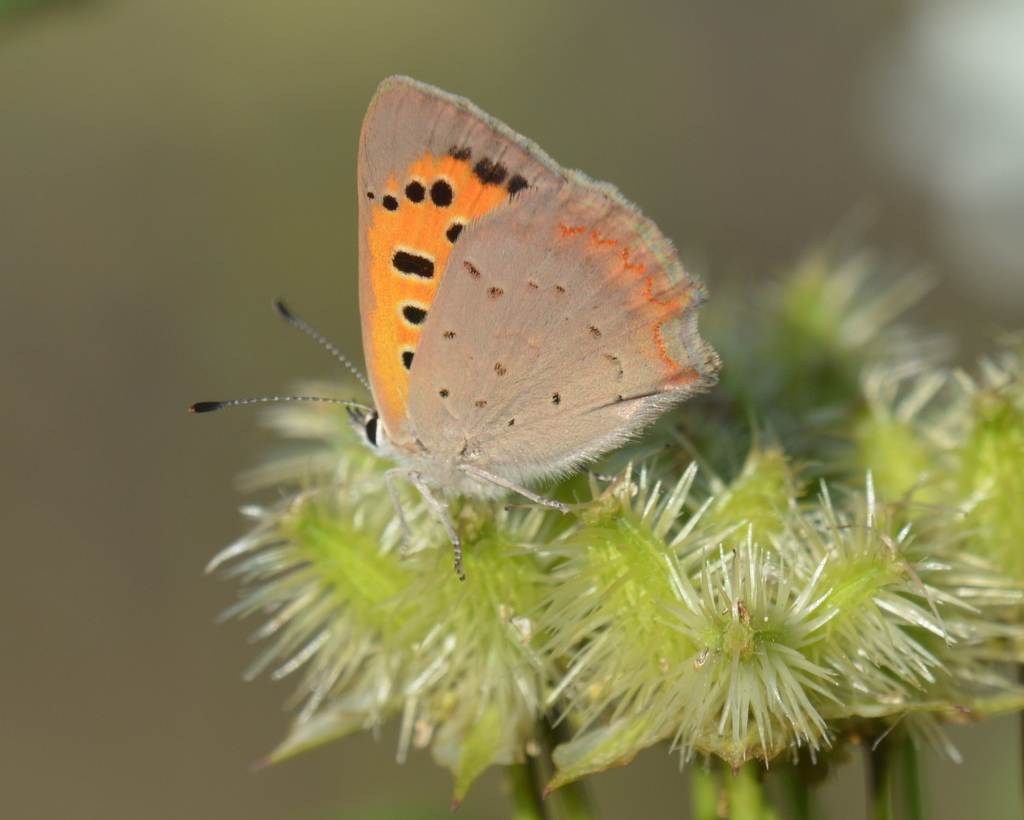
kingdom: Animalia
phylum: Arthropoda
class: Insecta
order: Lepidoptera
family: Lycaenidae
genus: Lycaena
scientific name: Lycaena phlaeas
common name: Small copper
